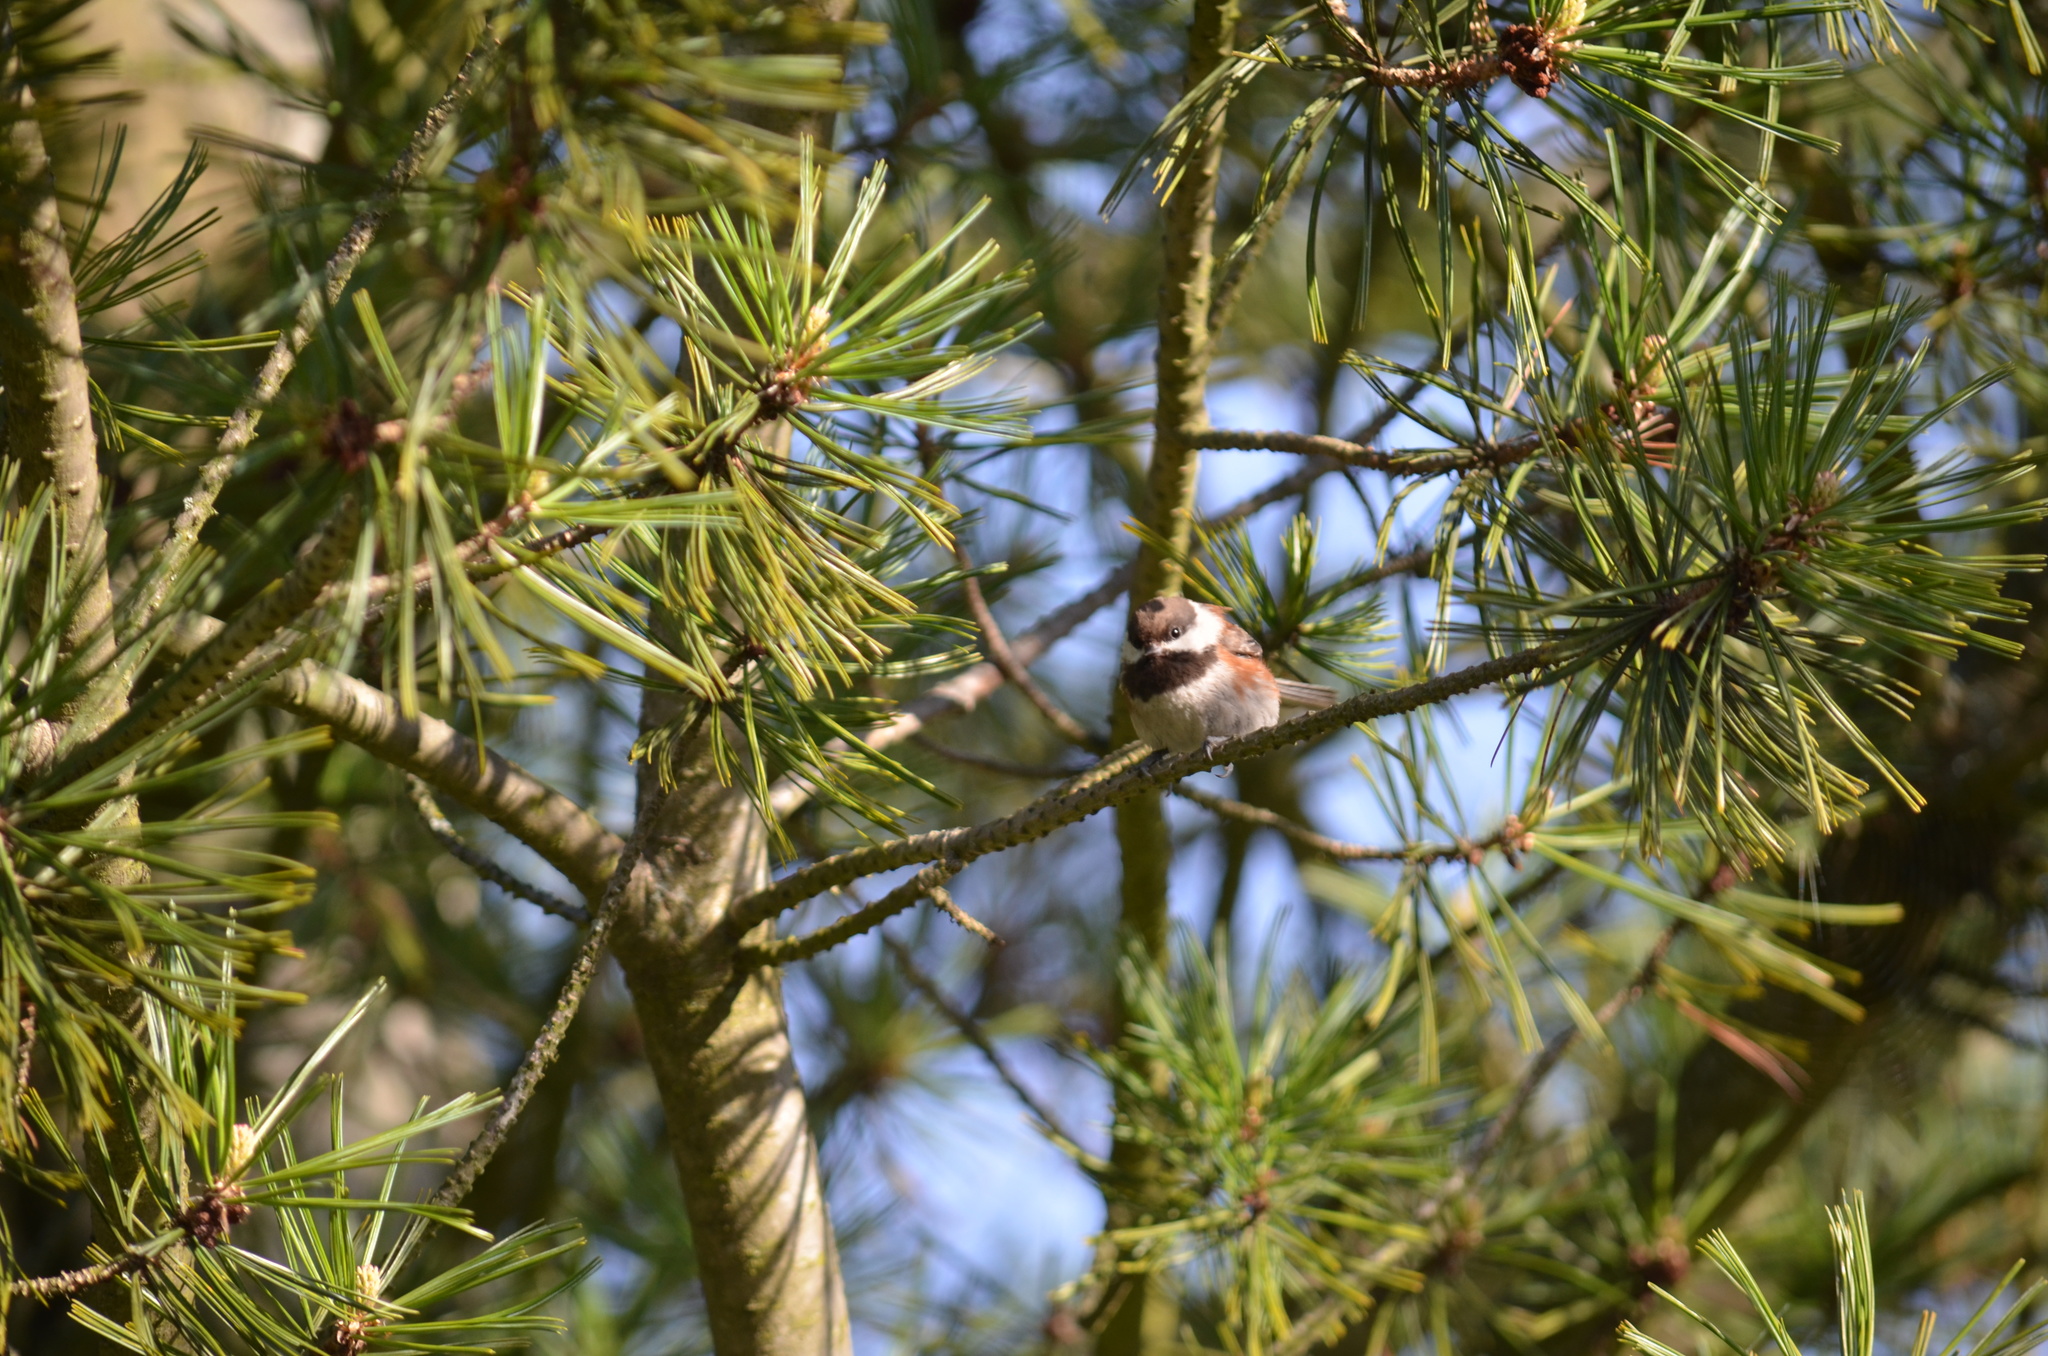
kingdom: Animalia
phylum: Chordata
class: Aves
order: Passeriformes
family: Paridae
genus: Poecile
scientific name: Poecile rufescens
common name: Chestnut-backed chickadee
